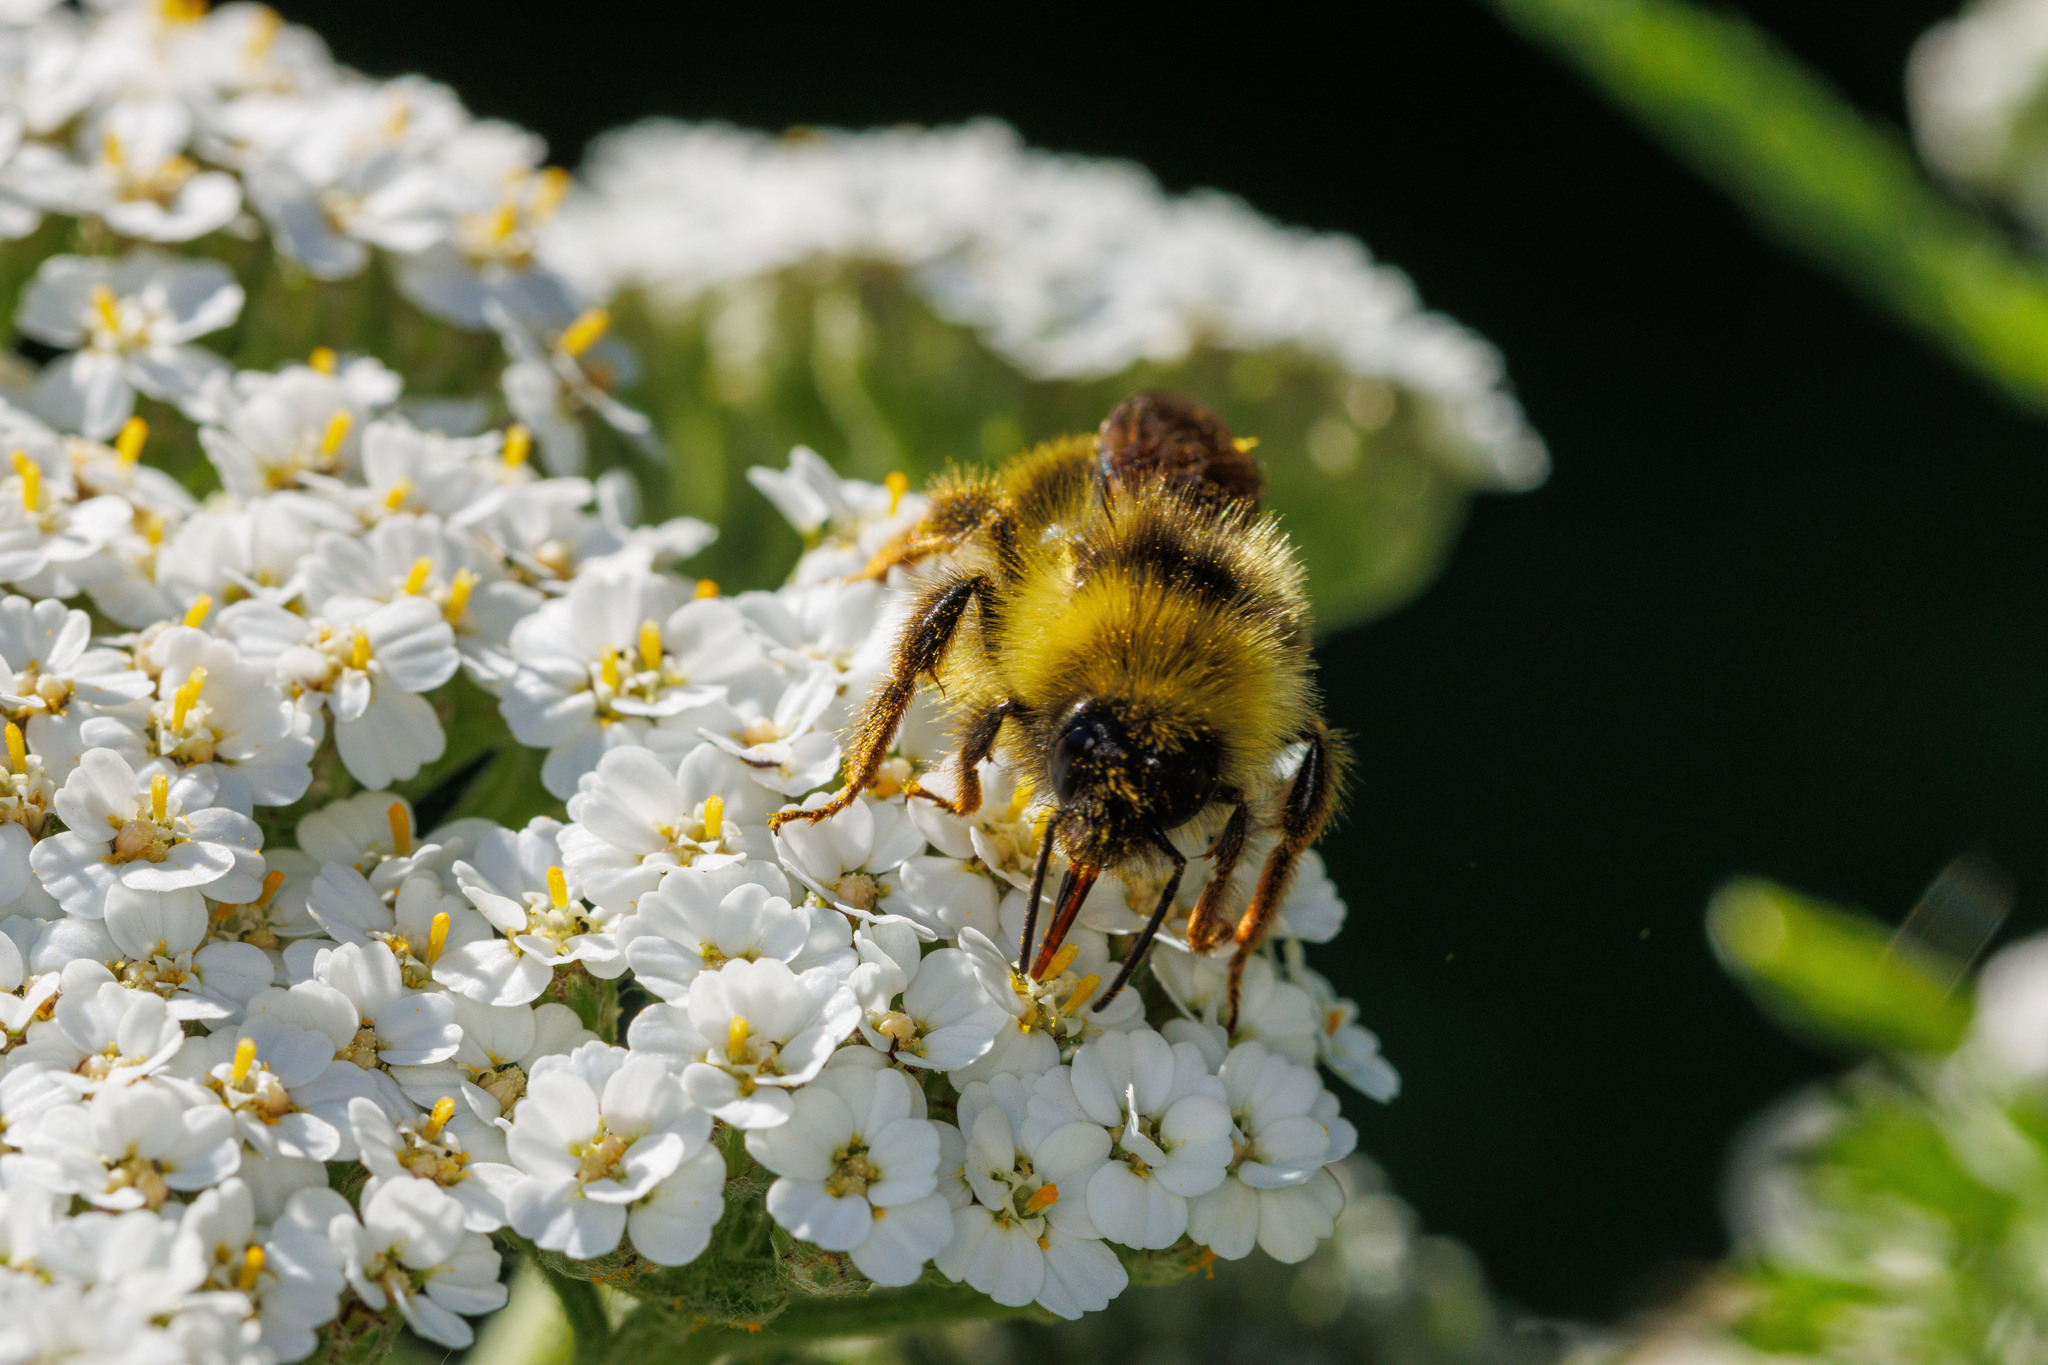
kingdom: Animalia
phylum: Arthropoda
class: Insecta
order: Hymenoptera
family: Apidae
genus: Bombus
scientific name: Bombus flavidus
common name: Fernald cuckoo bumble bee
